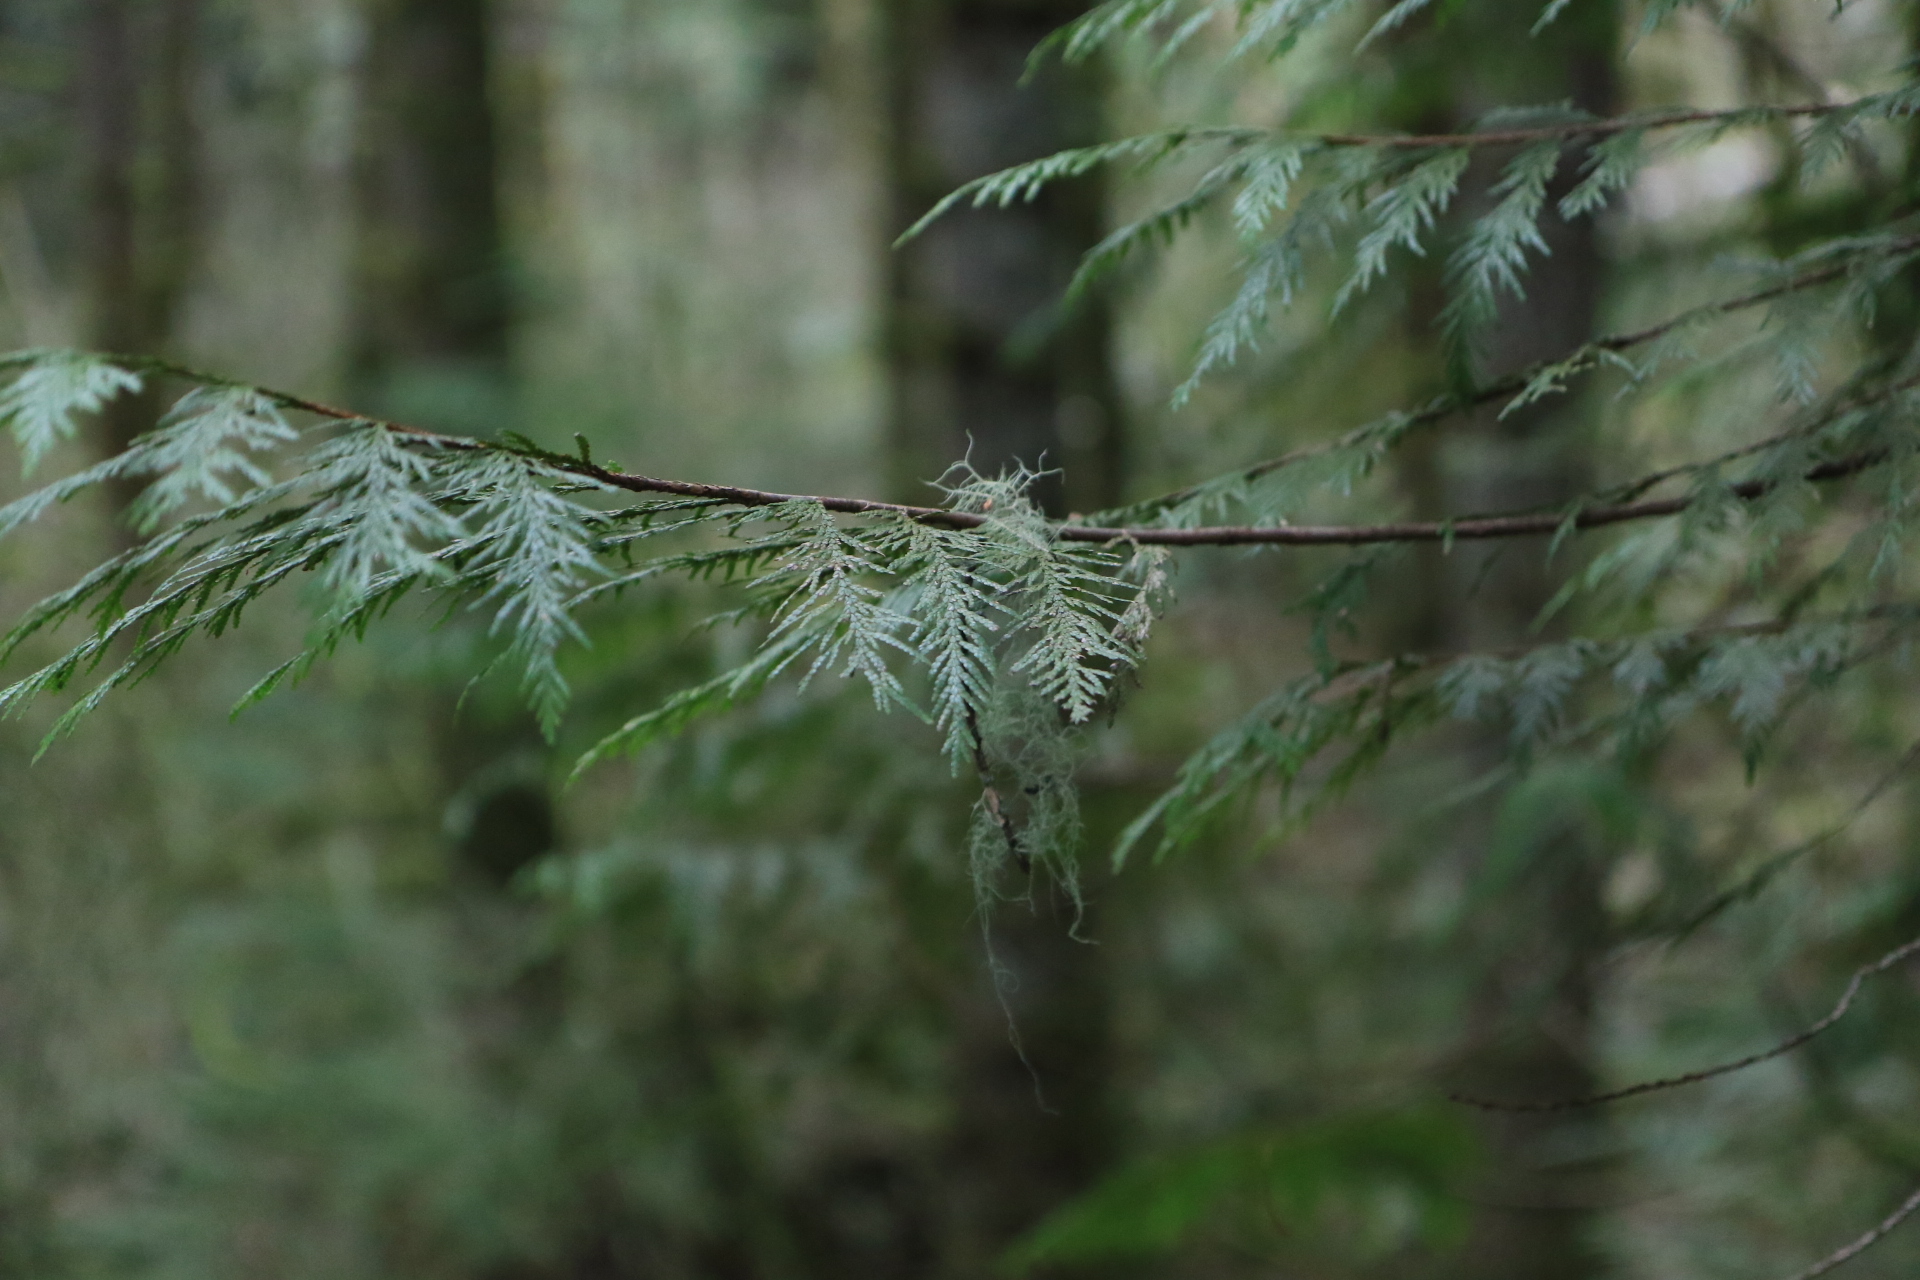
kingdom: Plantae
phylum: Tracheophyta
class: Pinopsida
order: Pinales
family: Cupressaceae
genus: Thuja
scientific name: Thuja plicata
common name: Western red-cedar
